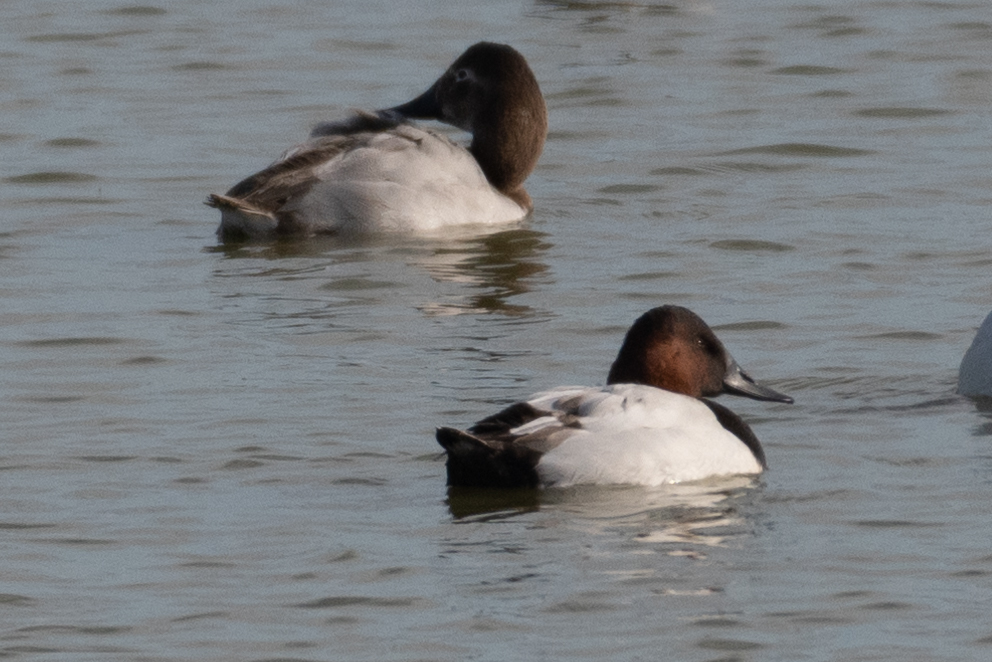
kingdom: Animalia
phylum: Chordata
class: Aves
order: Anseriformes
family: Anatidae
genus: Aythya
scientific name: Aythya valisineria
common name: Canvasback
